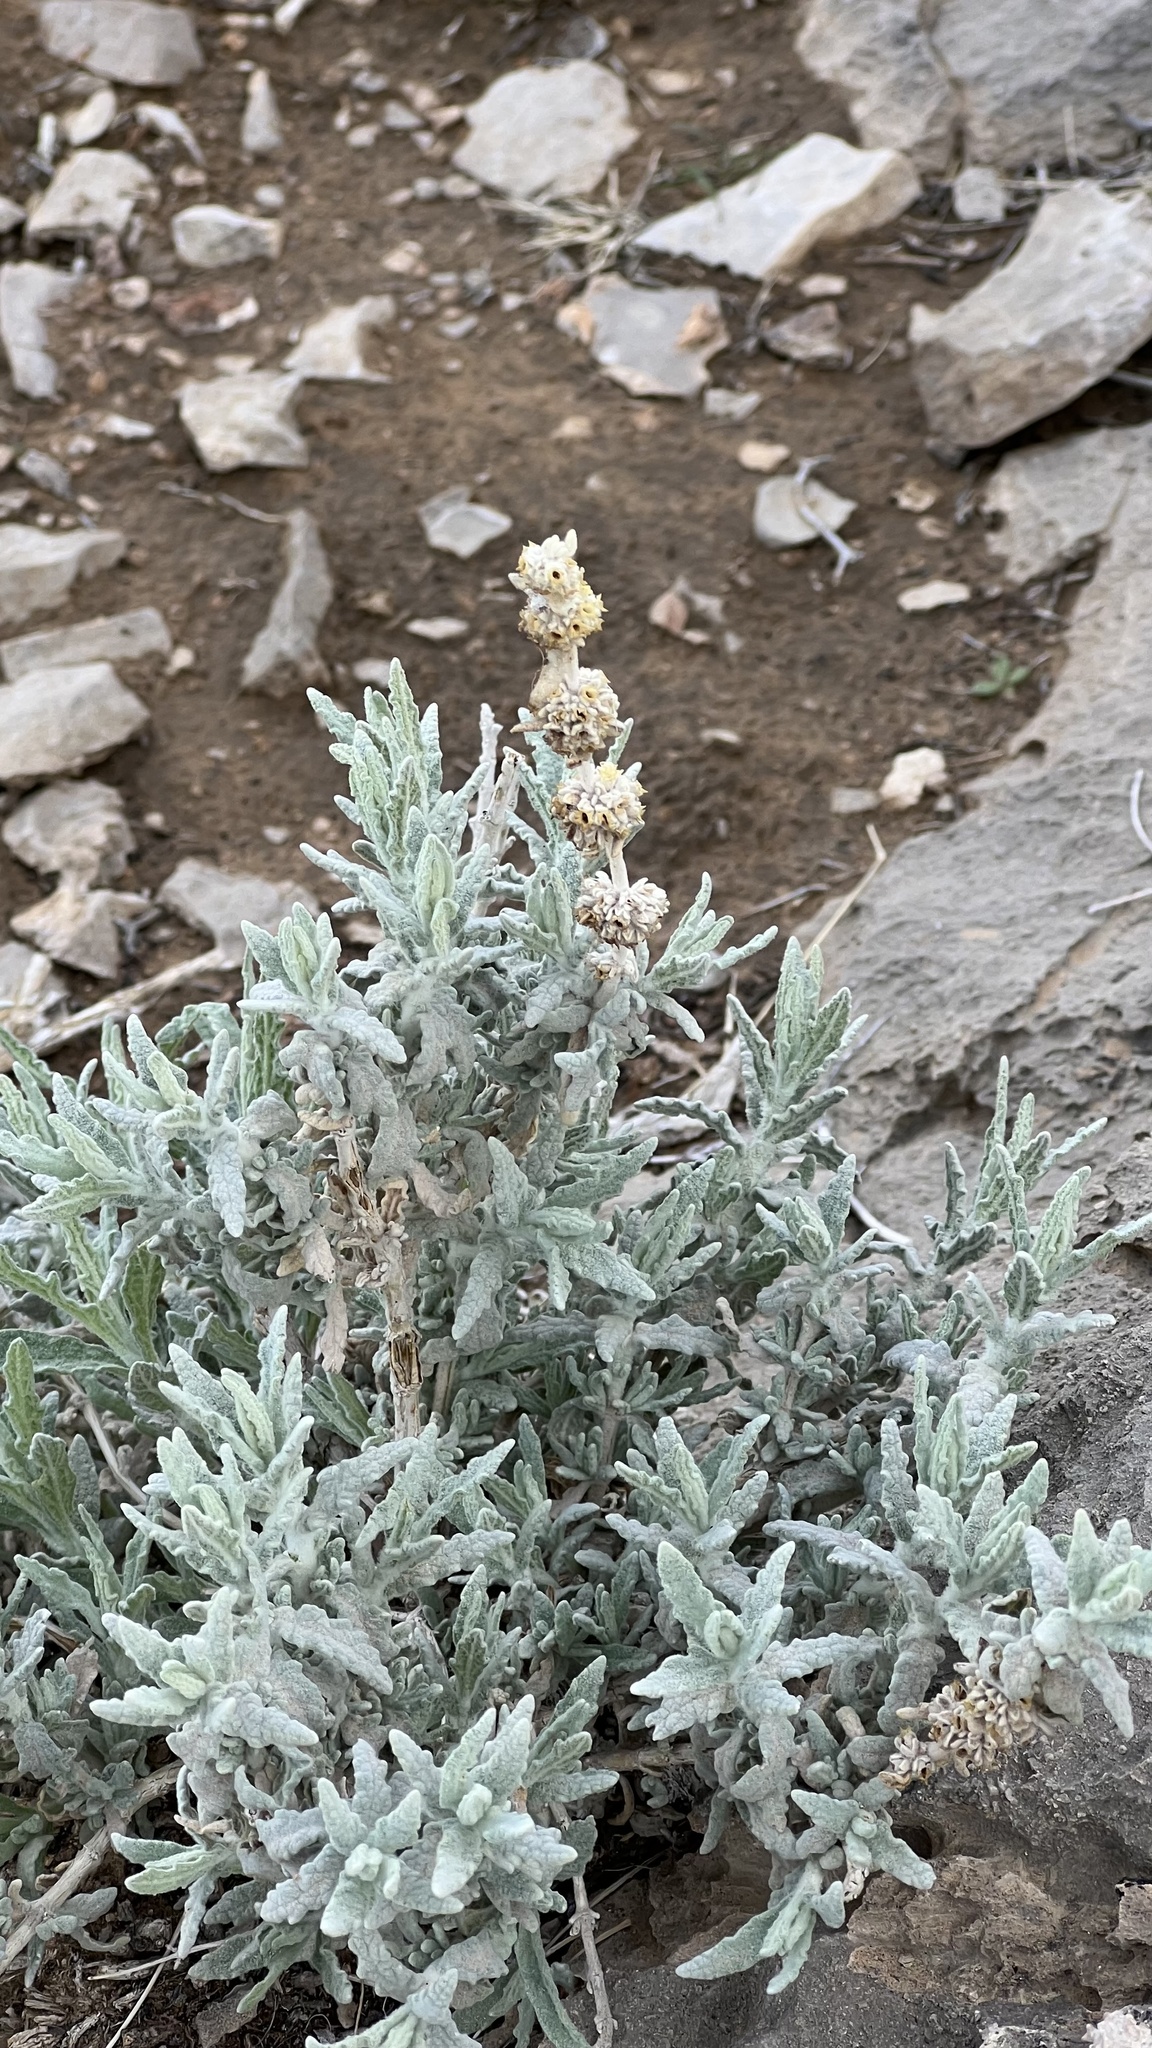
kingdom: Plantae
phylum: Tracheophyta
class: Magnoliopsida
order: Lamiales
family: Scrophulariaceae
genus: Buddleja
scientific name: Buddleja utahensis
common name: Utah butterfly-bush
